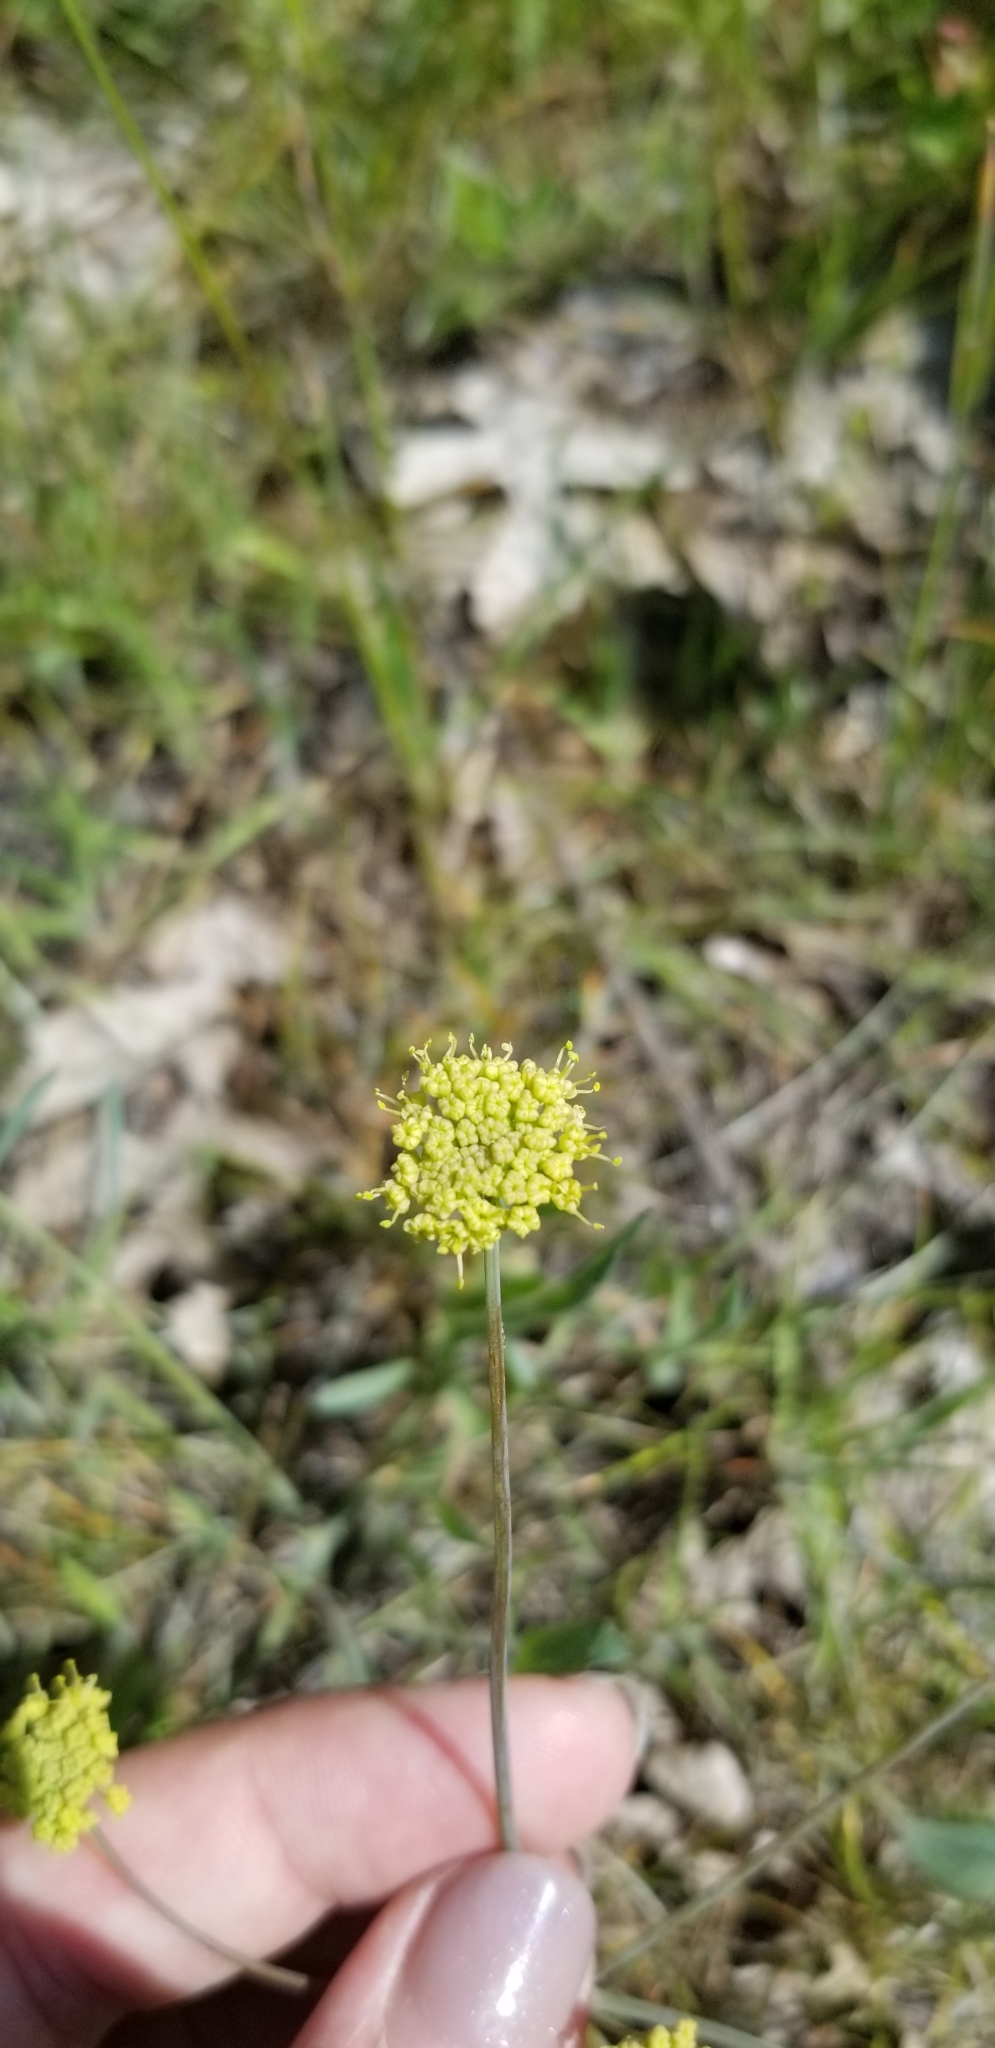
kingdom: Plantae
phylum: Tracheophyta
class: Magnoliopsida
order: Apiales
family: Apiaceae
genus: Lomatium
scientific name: Lomatium nudicaule
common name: Pestle lomatium
